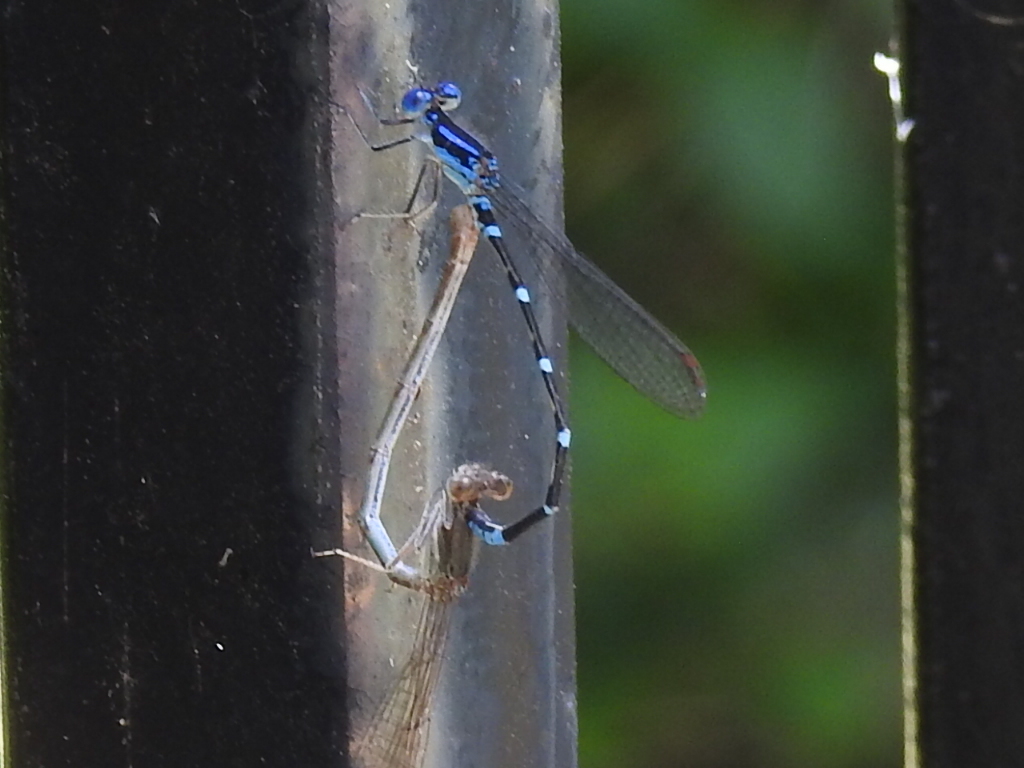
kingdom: Animalia
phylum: Arthropoda
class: Insecta
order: Odonata
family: Coenagrionidae
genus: Argia
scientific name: Argia sedula
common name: Blue-ringed dancer
